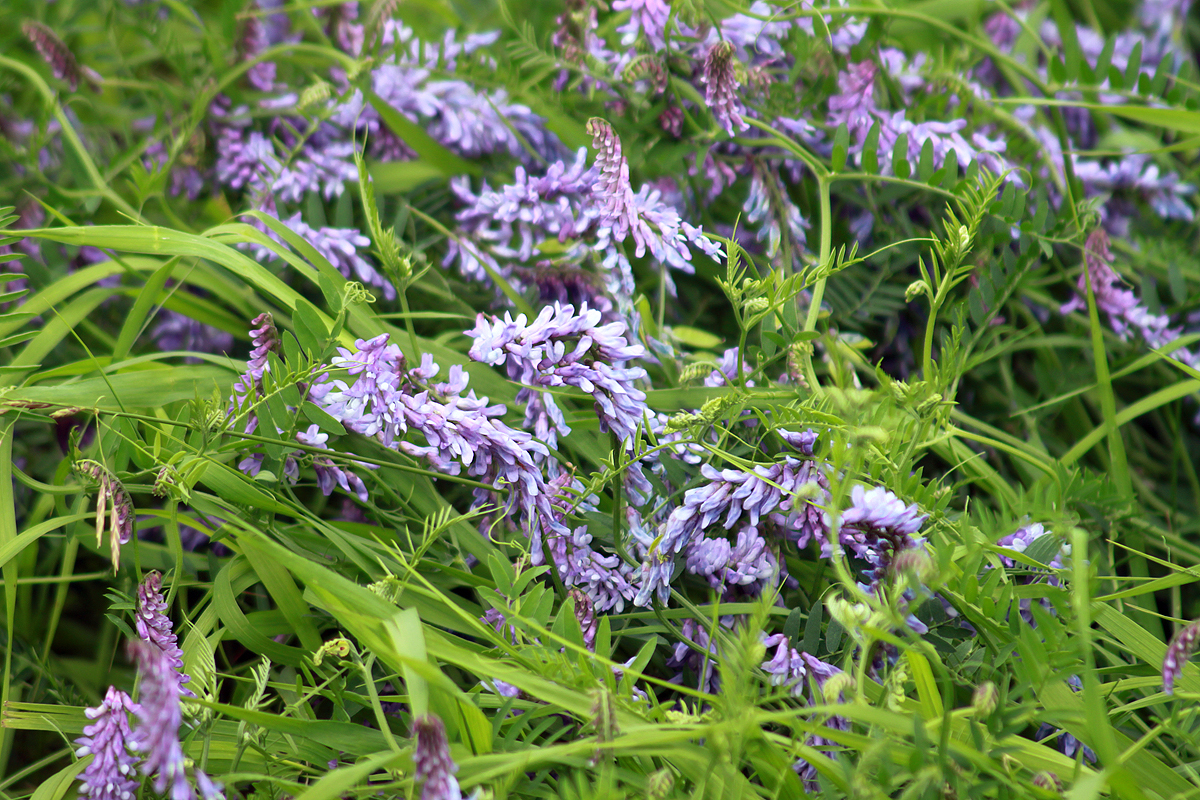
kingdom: Plantae
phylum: Tracheophyta
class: Magnoliopsida
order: Fabales
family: Fabaceae
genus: Vicia
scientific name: Vicia cracca
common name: Bird vetch
